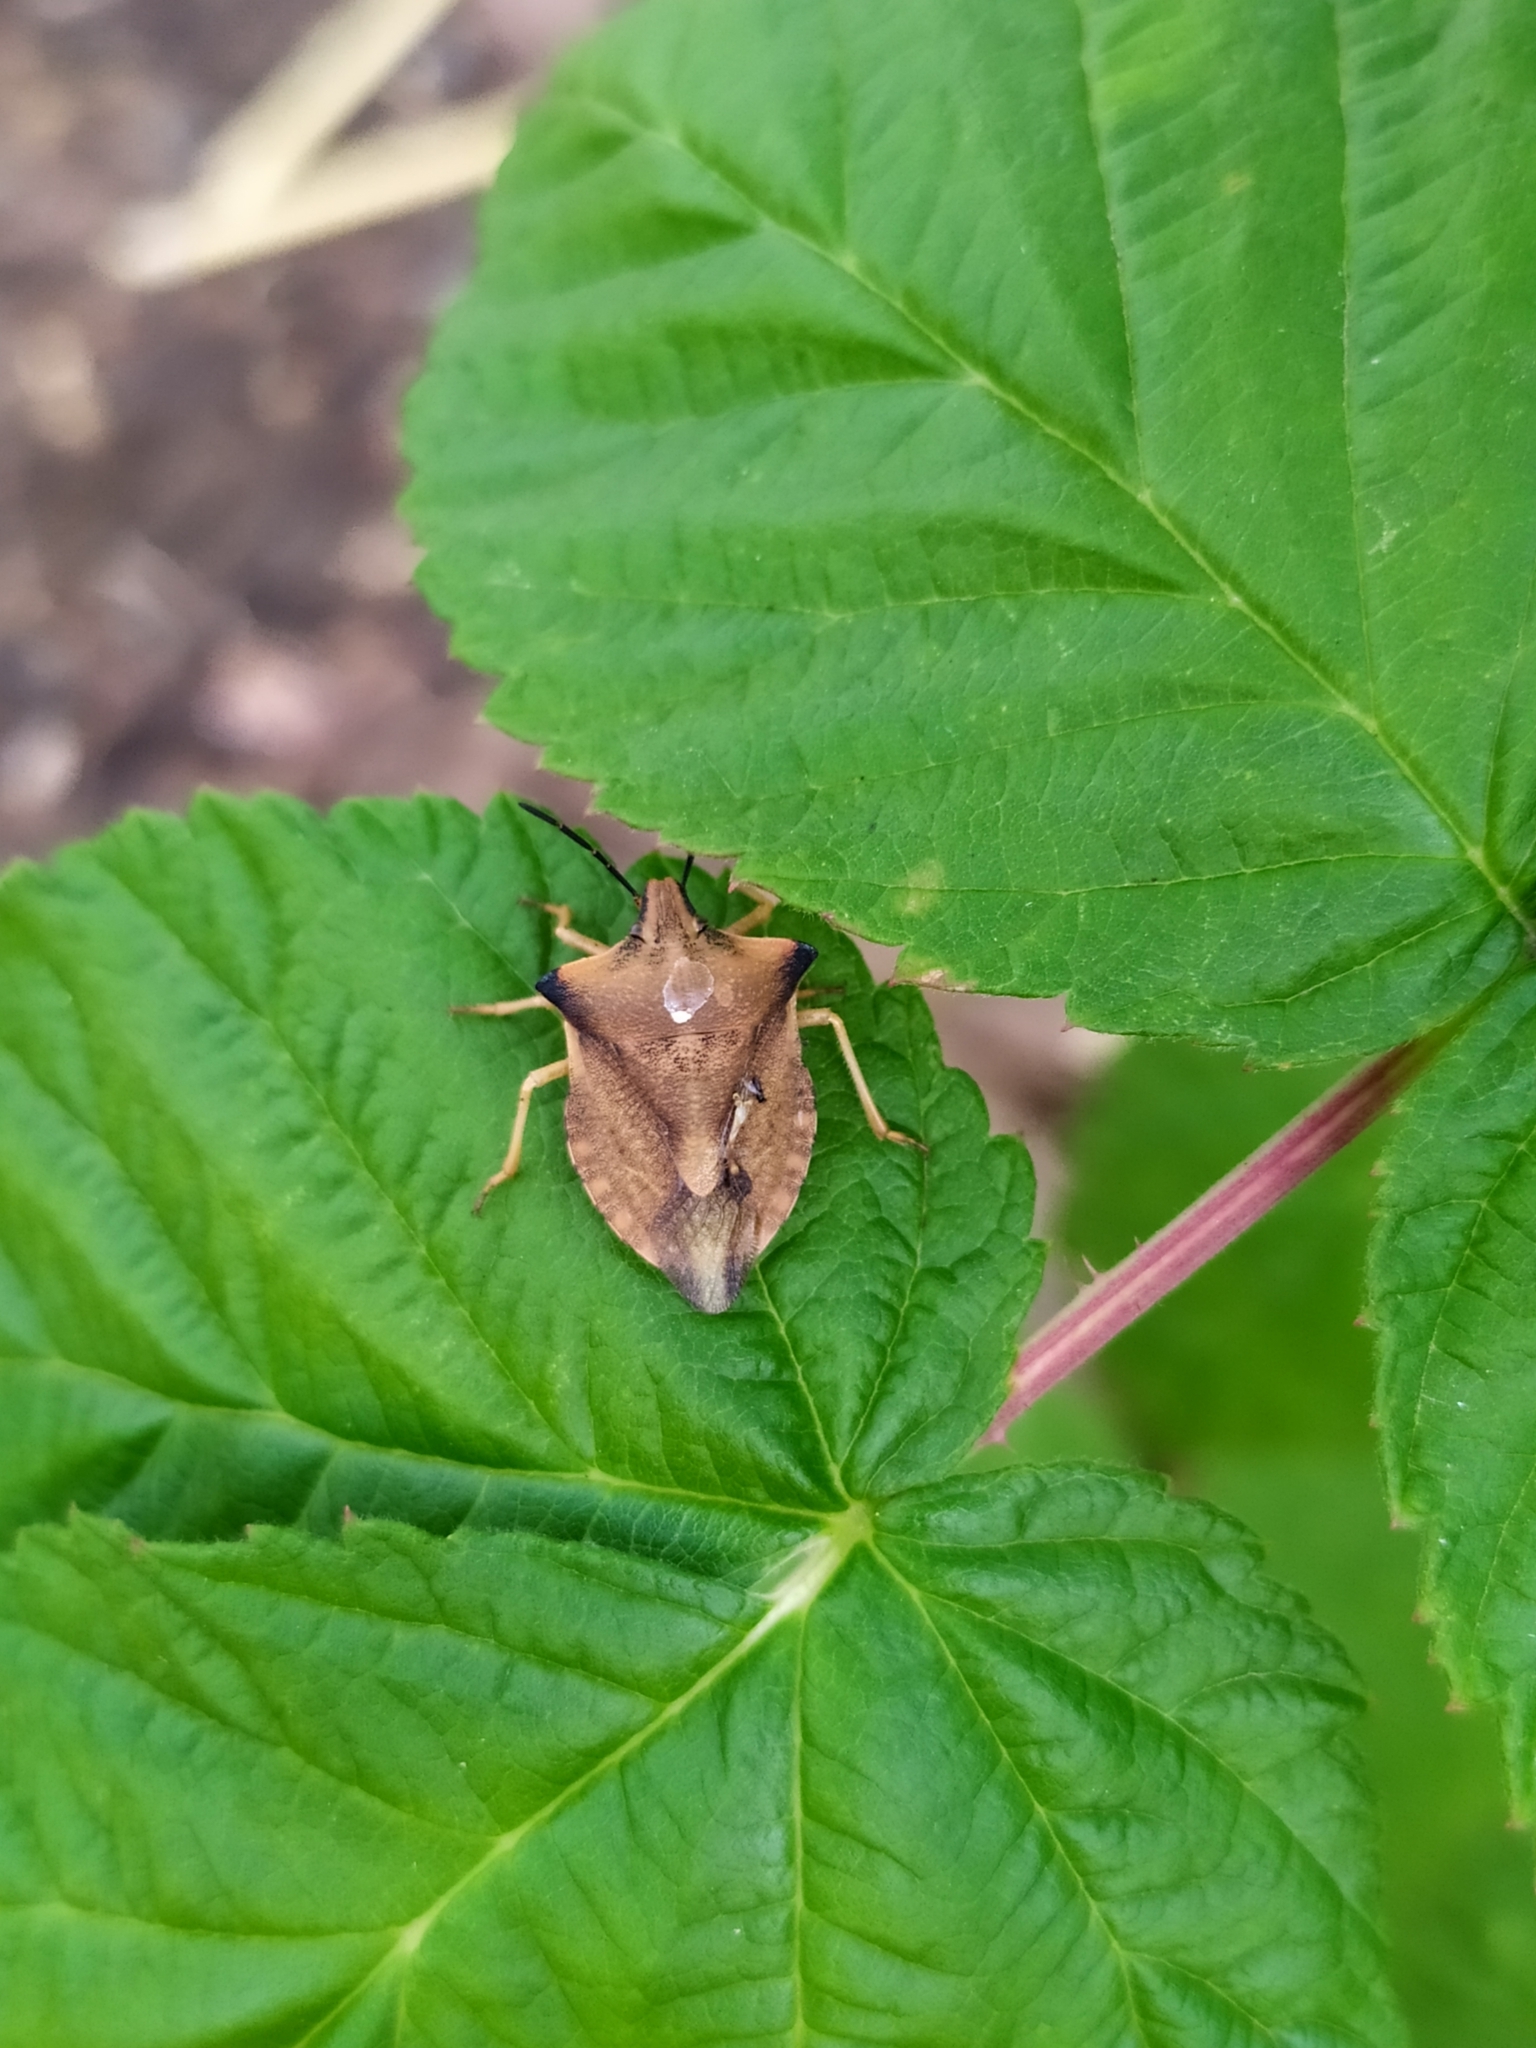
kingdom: Animalia
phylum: Arthropoda
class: Insecta
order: Hemiptera
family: Pentatomidae
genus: Carpocoris
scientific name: Carpocoris fuscispinus
